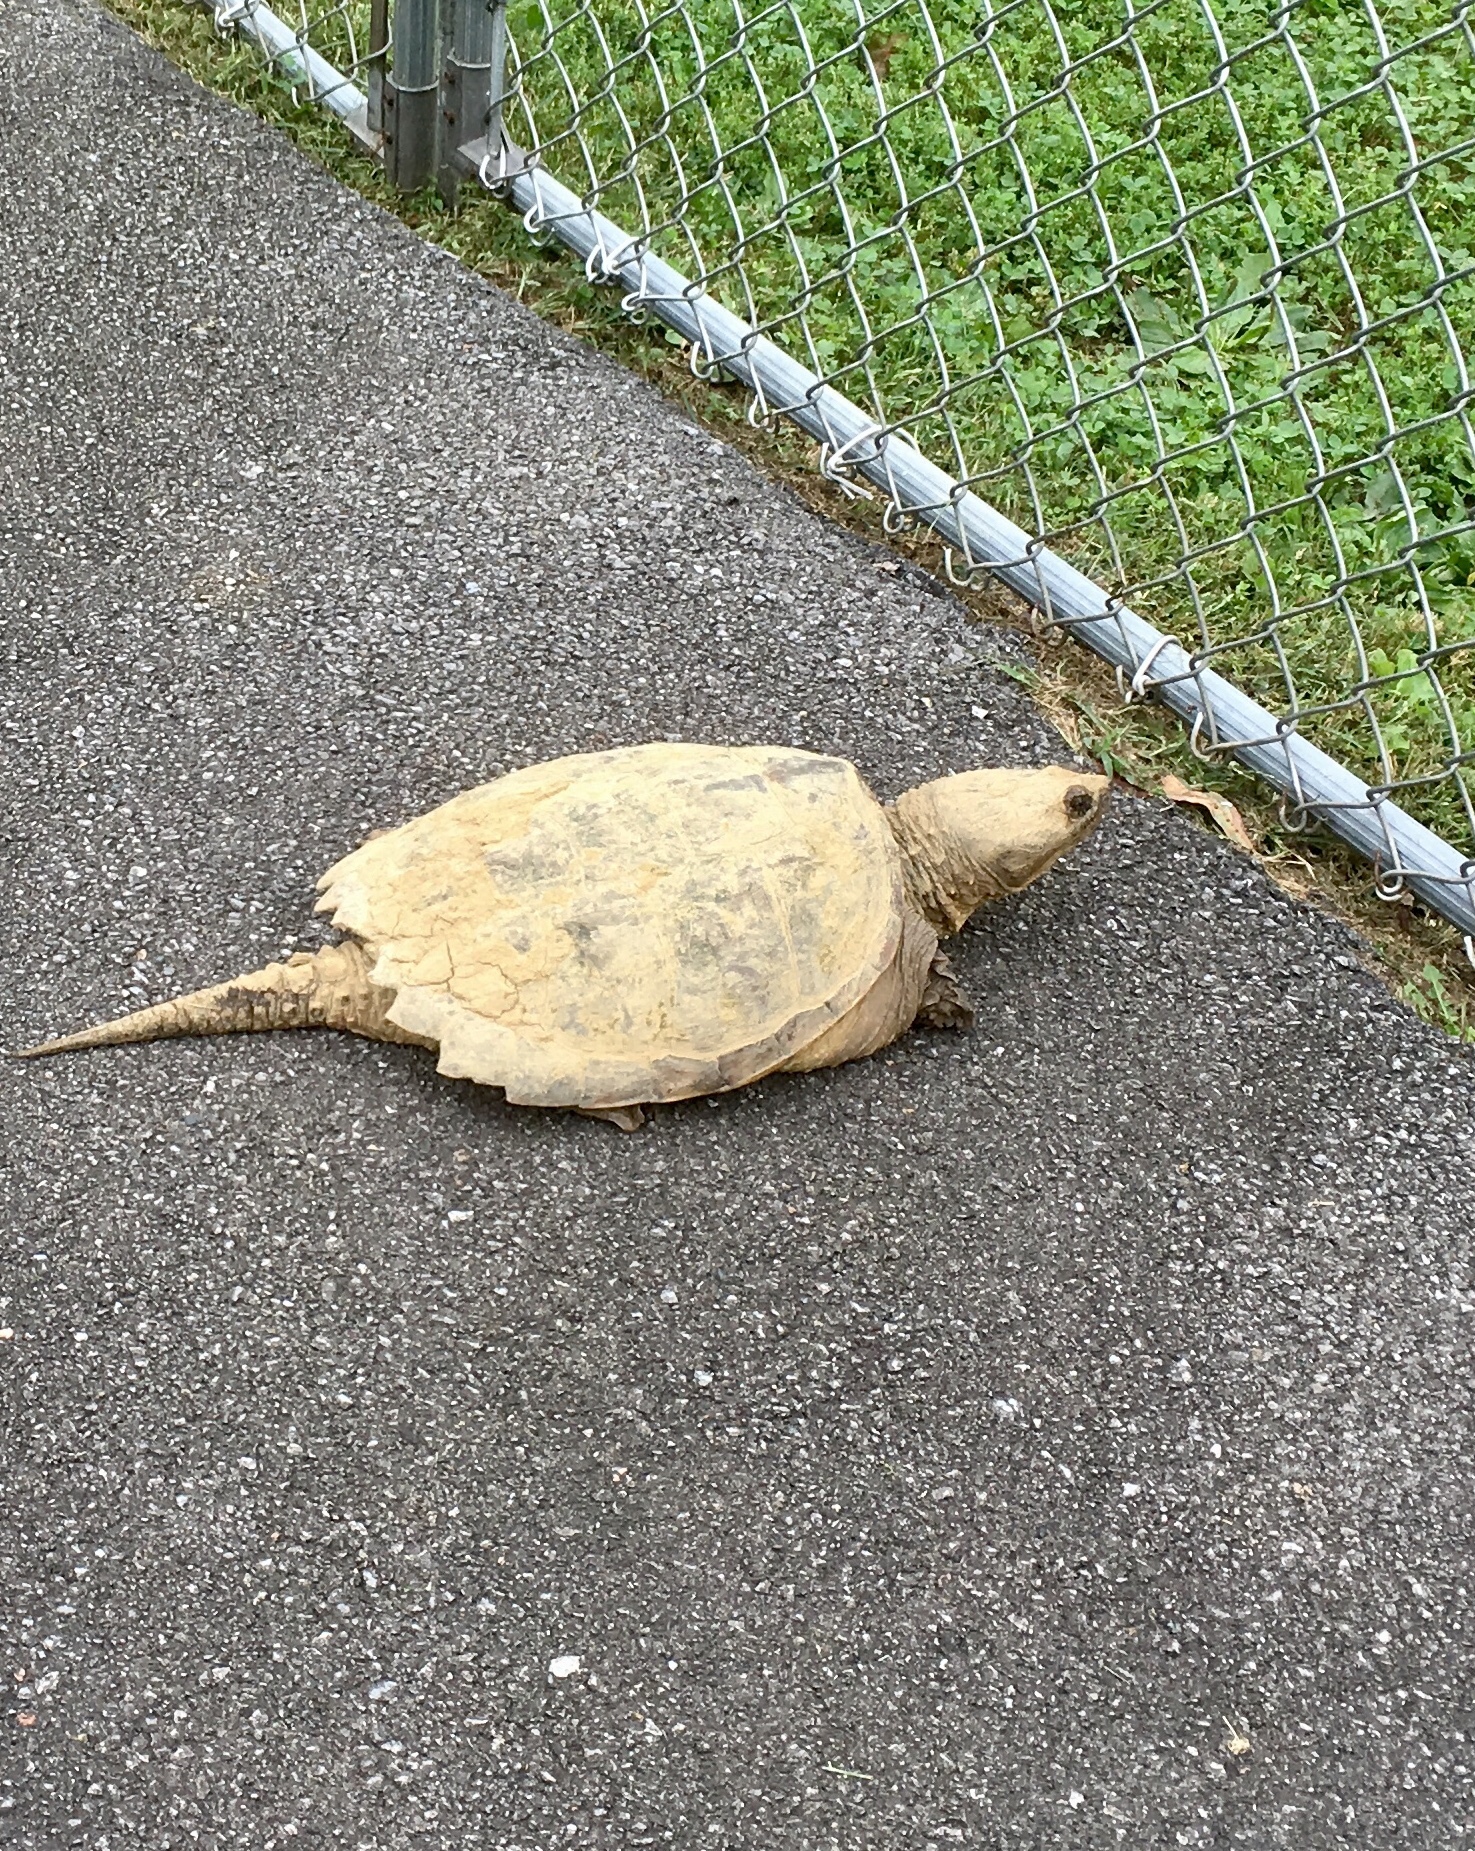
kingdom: Animalia
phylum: Chordata
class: Testudines
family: Chelydridae
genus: Chelydra
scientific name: Chelydra serpentina
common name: Common snapping turtle
